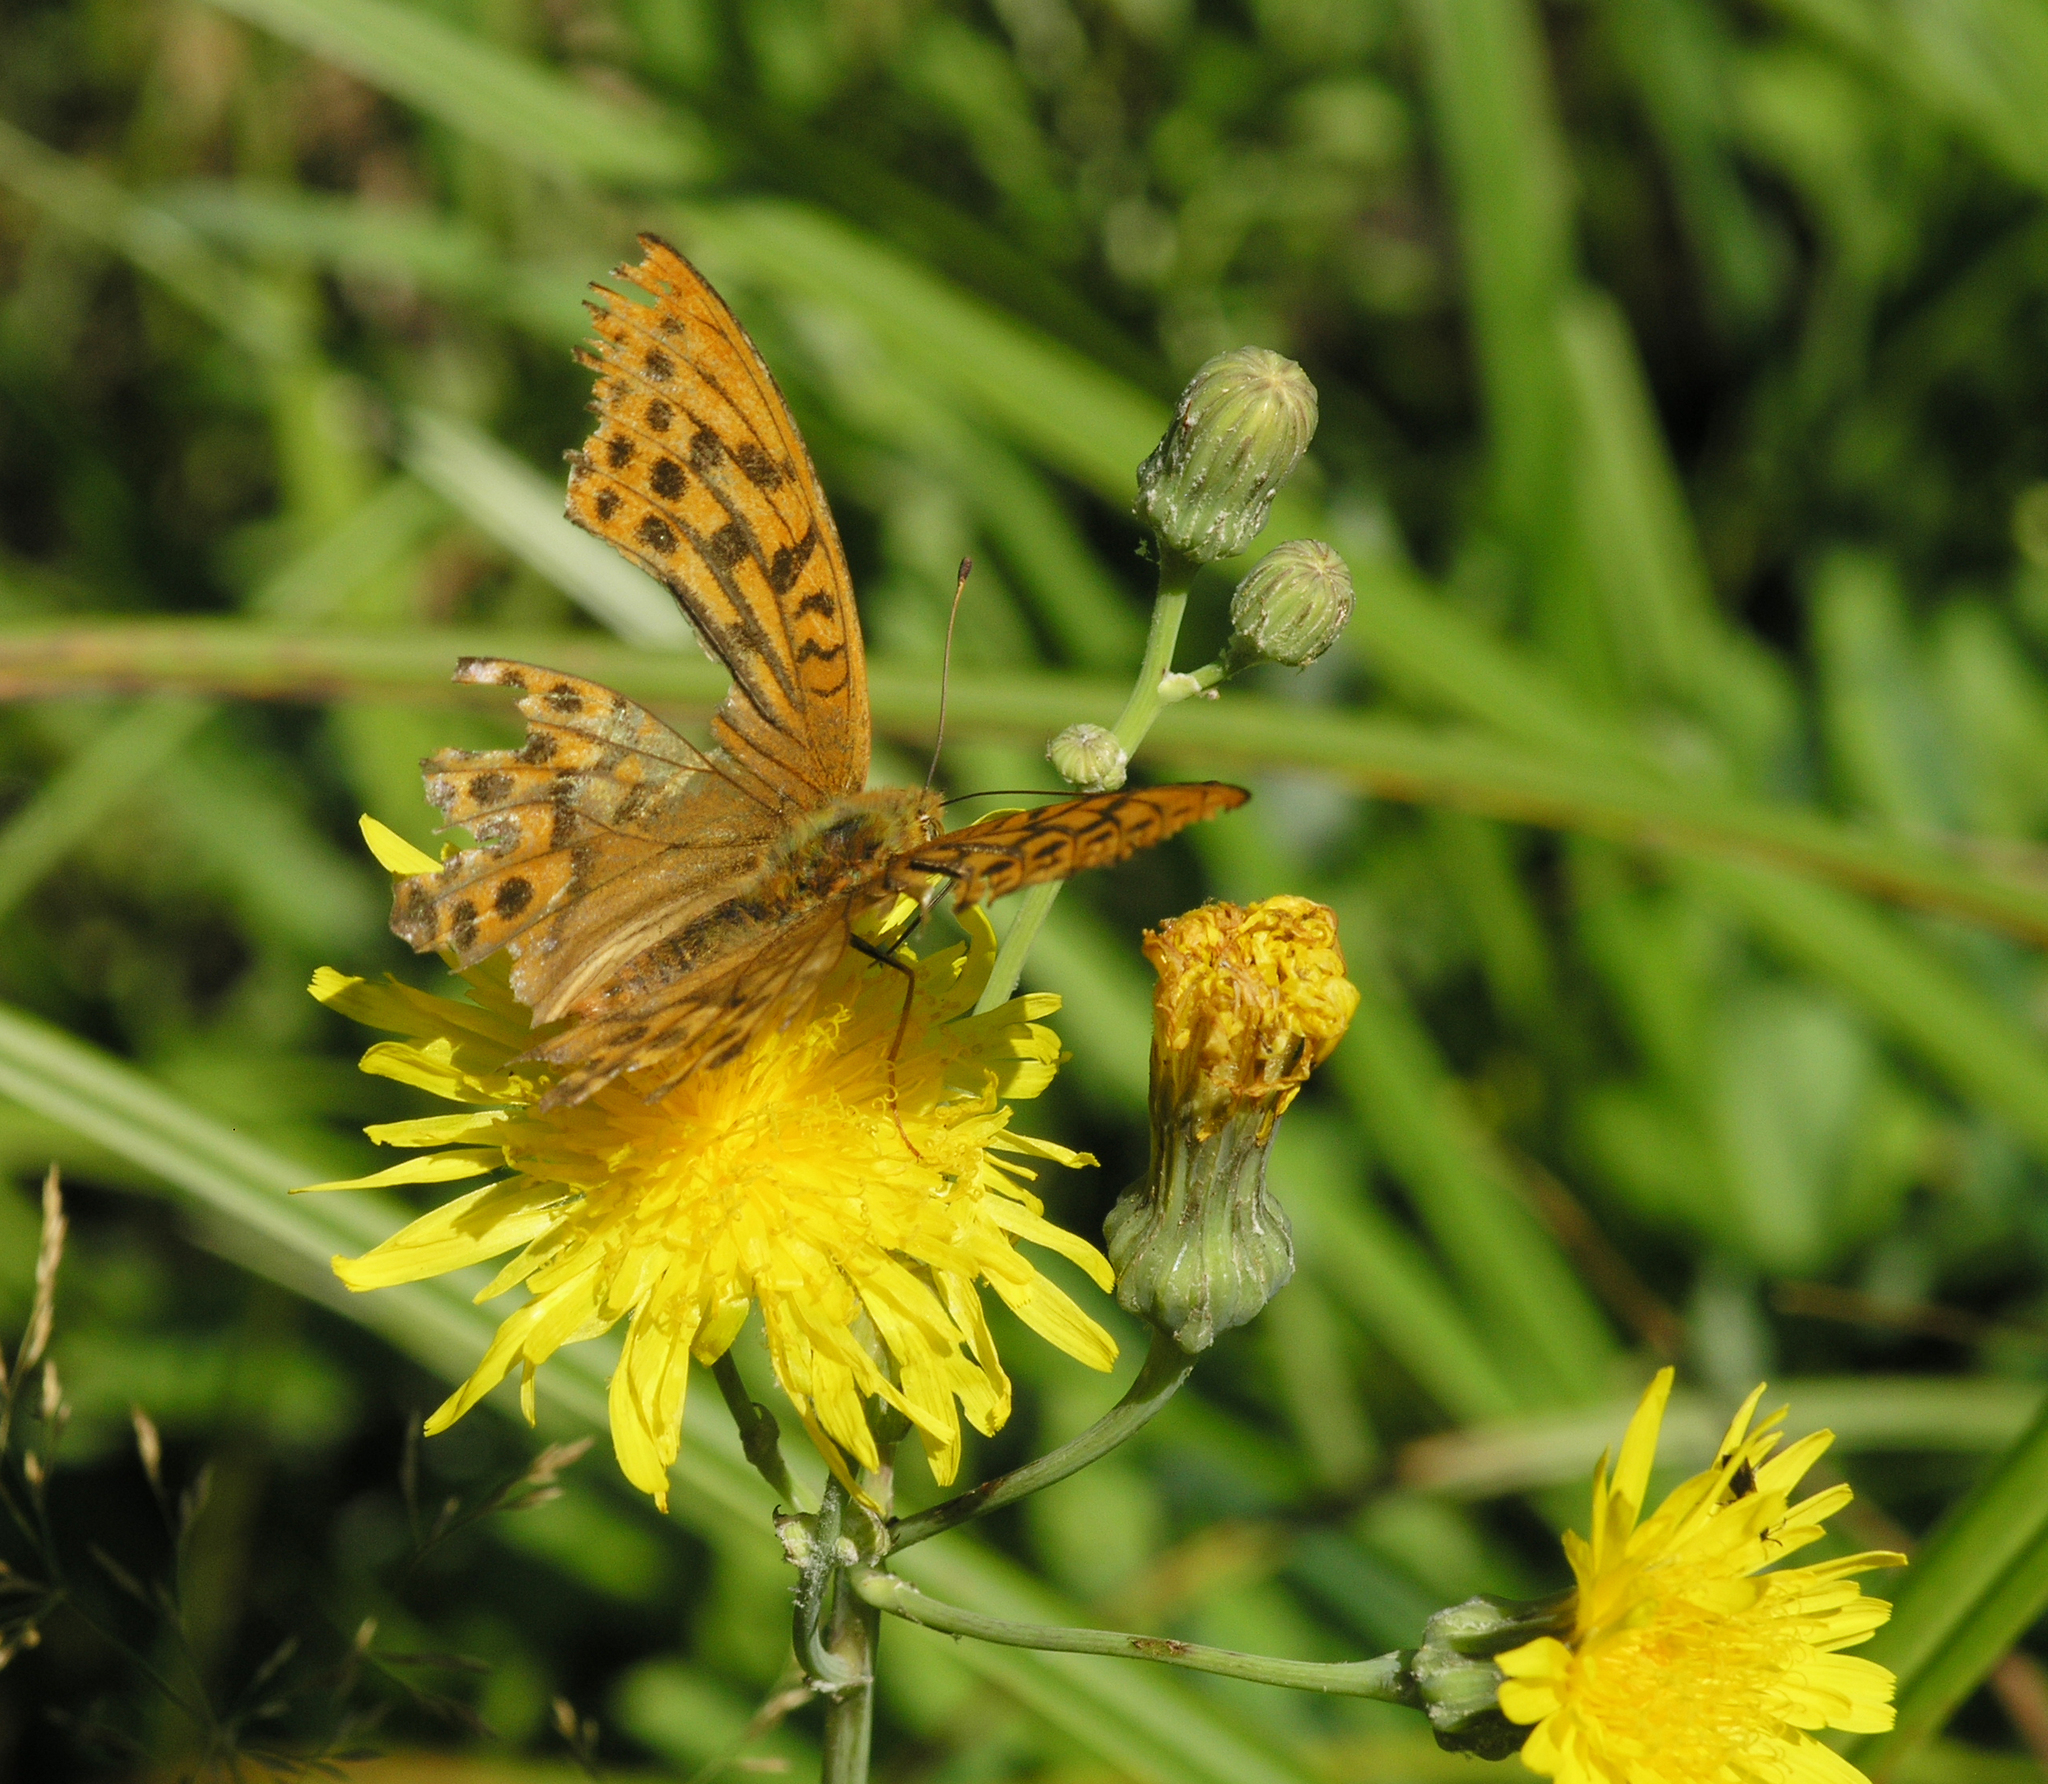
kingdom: Animalia
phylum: Arthropoda
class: Insecta
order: Lepidoptera
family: Nymphalidae
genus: Argynnis
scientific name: Argynnis paphia
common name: Silver-washed fritillary
